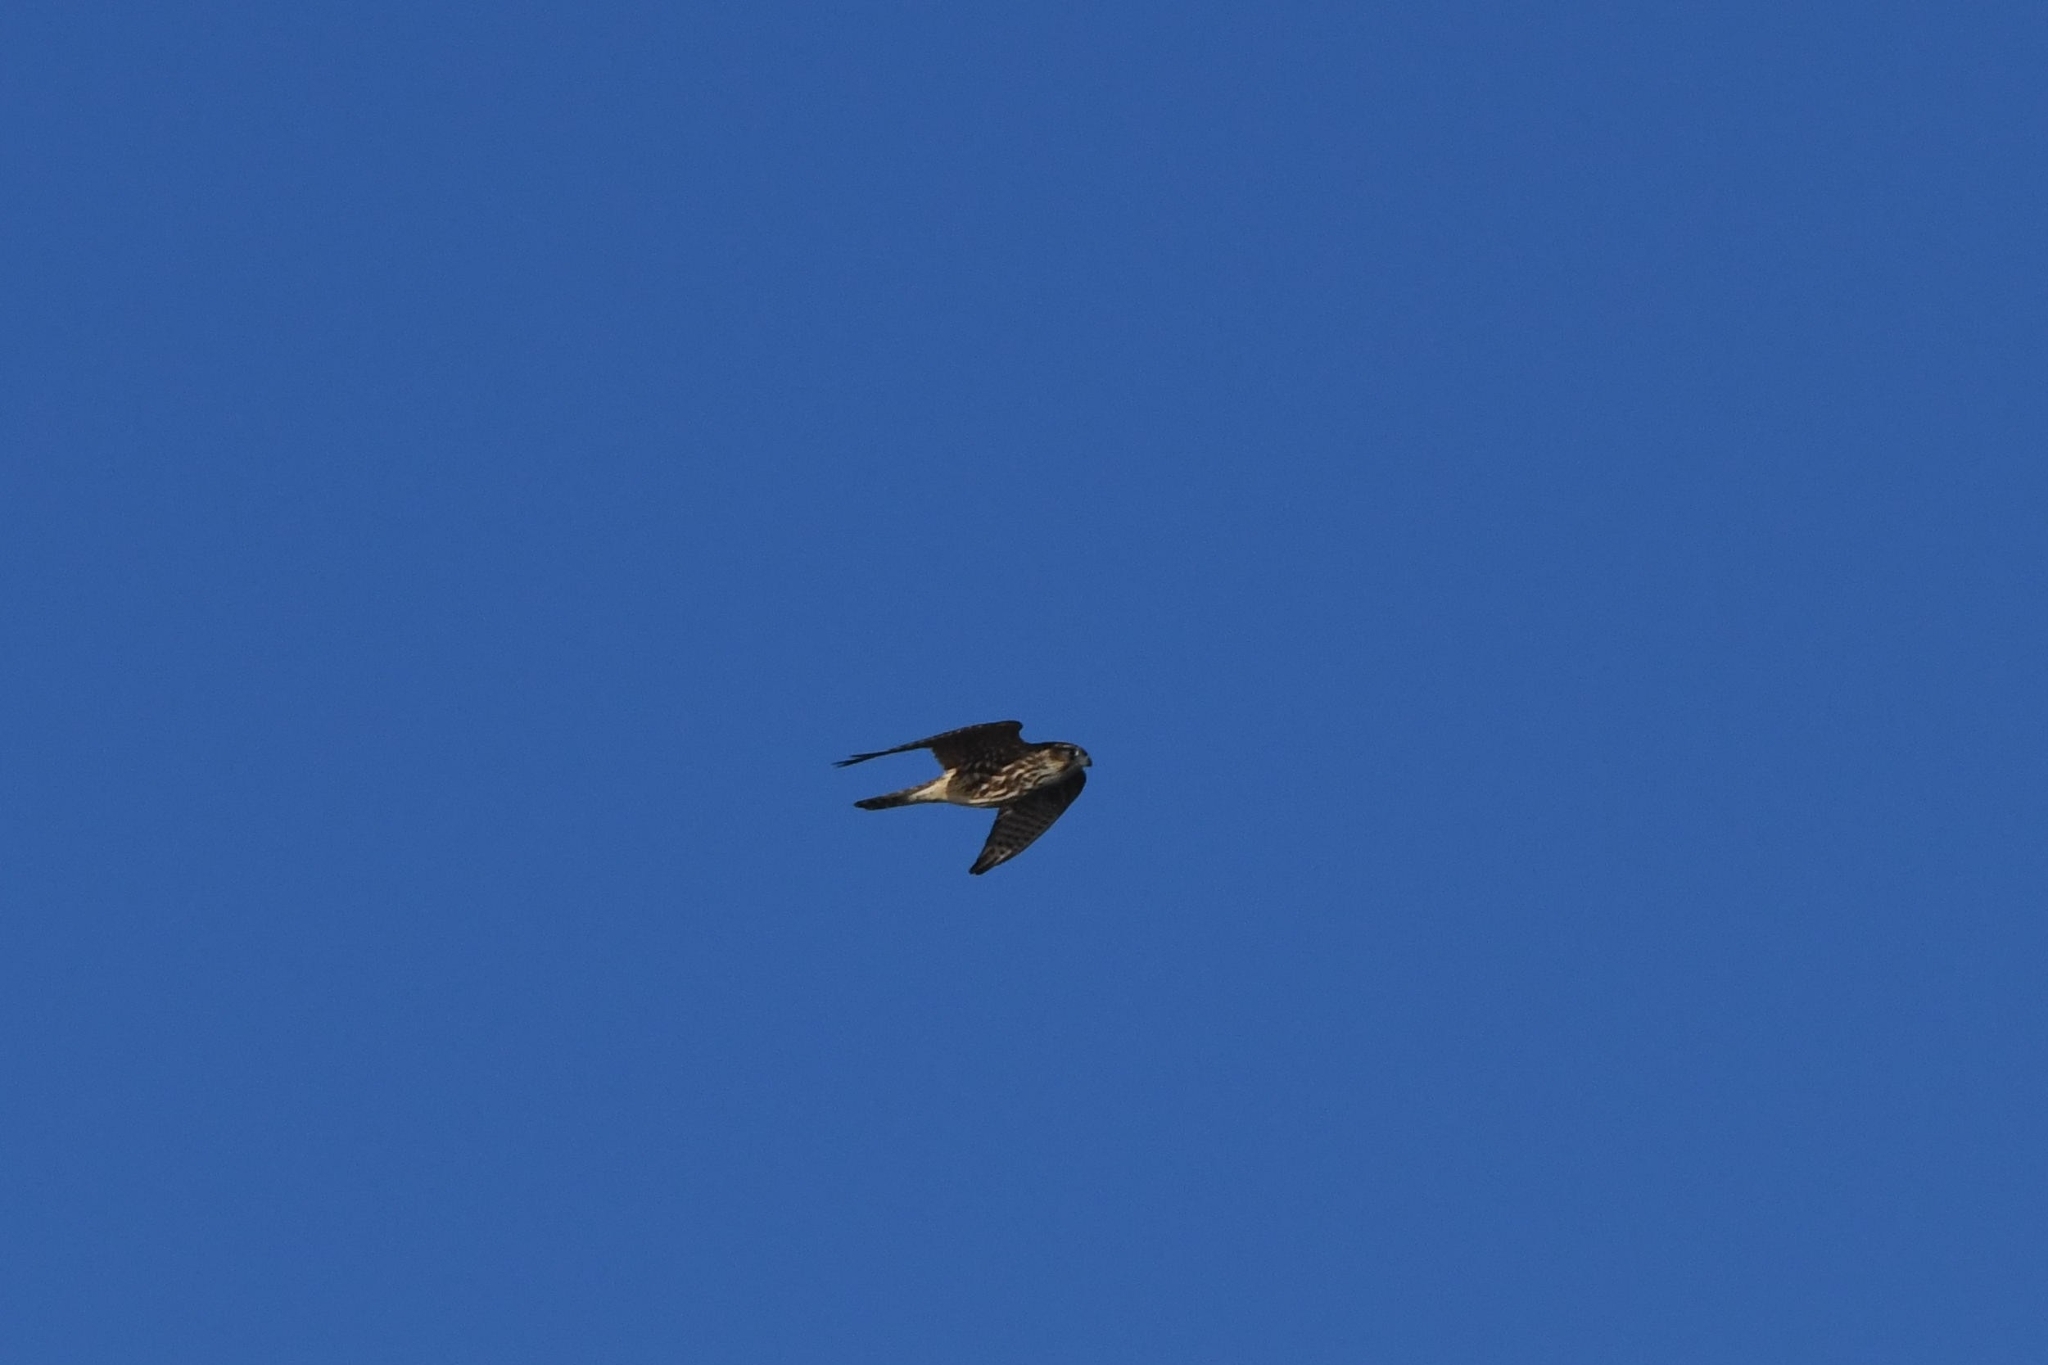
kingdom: Animalia
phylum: Chordata
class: Aves
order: Falconiformes
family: Falconidae
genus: Falco
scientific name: Falco columbarius
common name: Merlin
